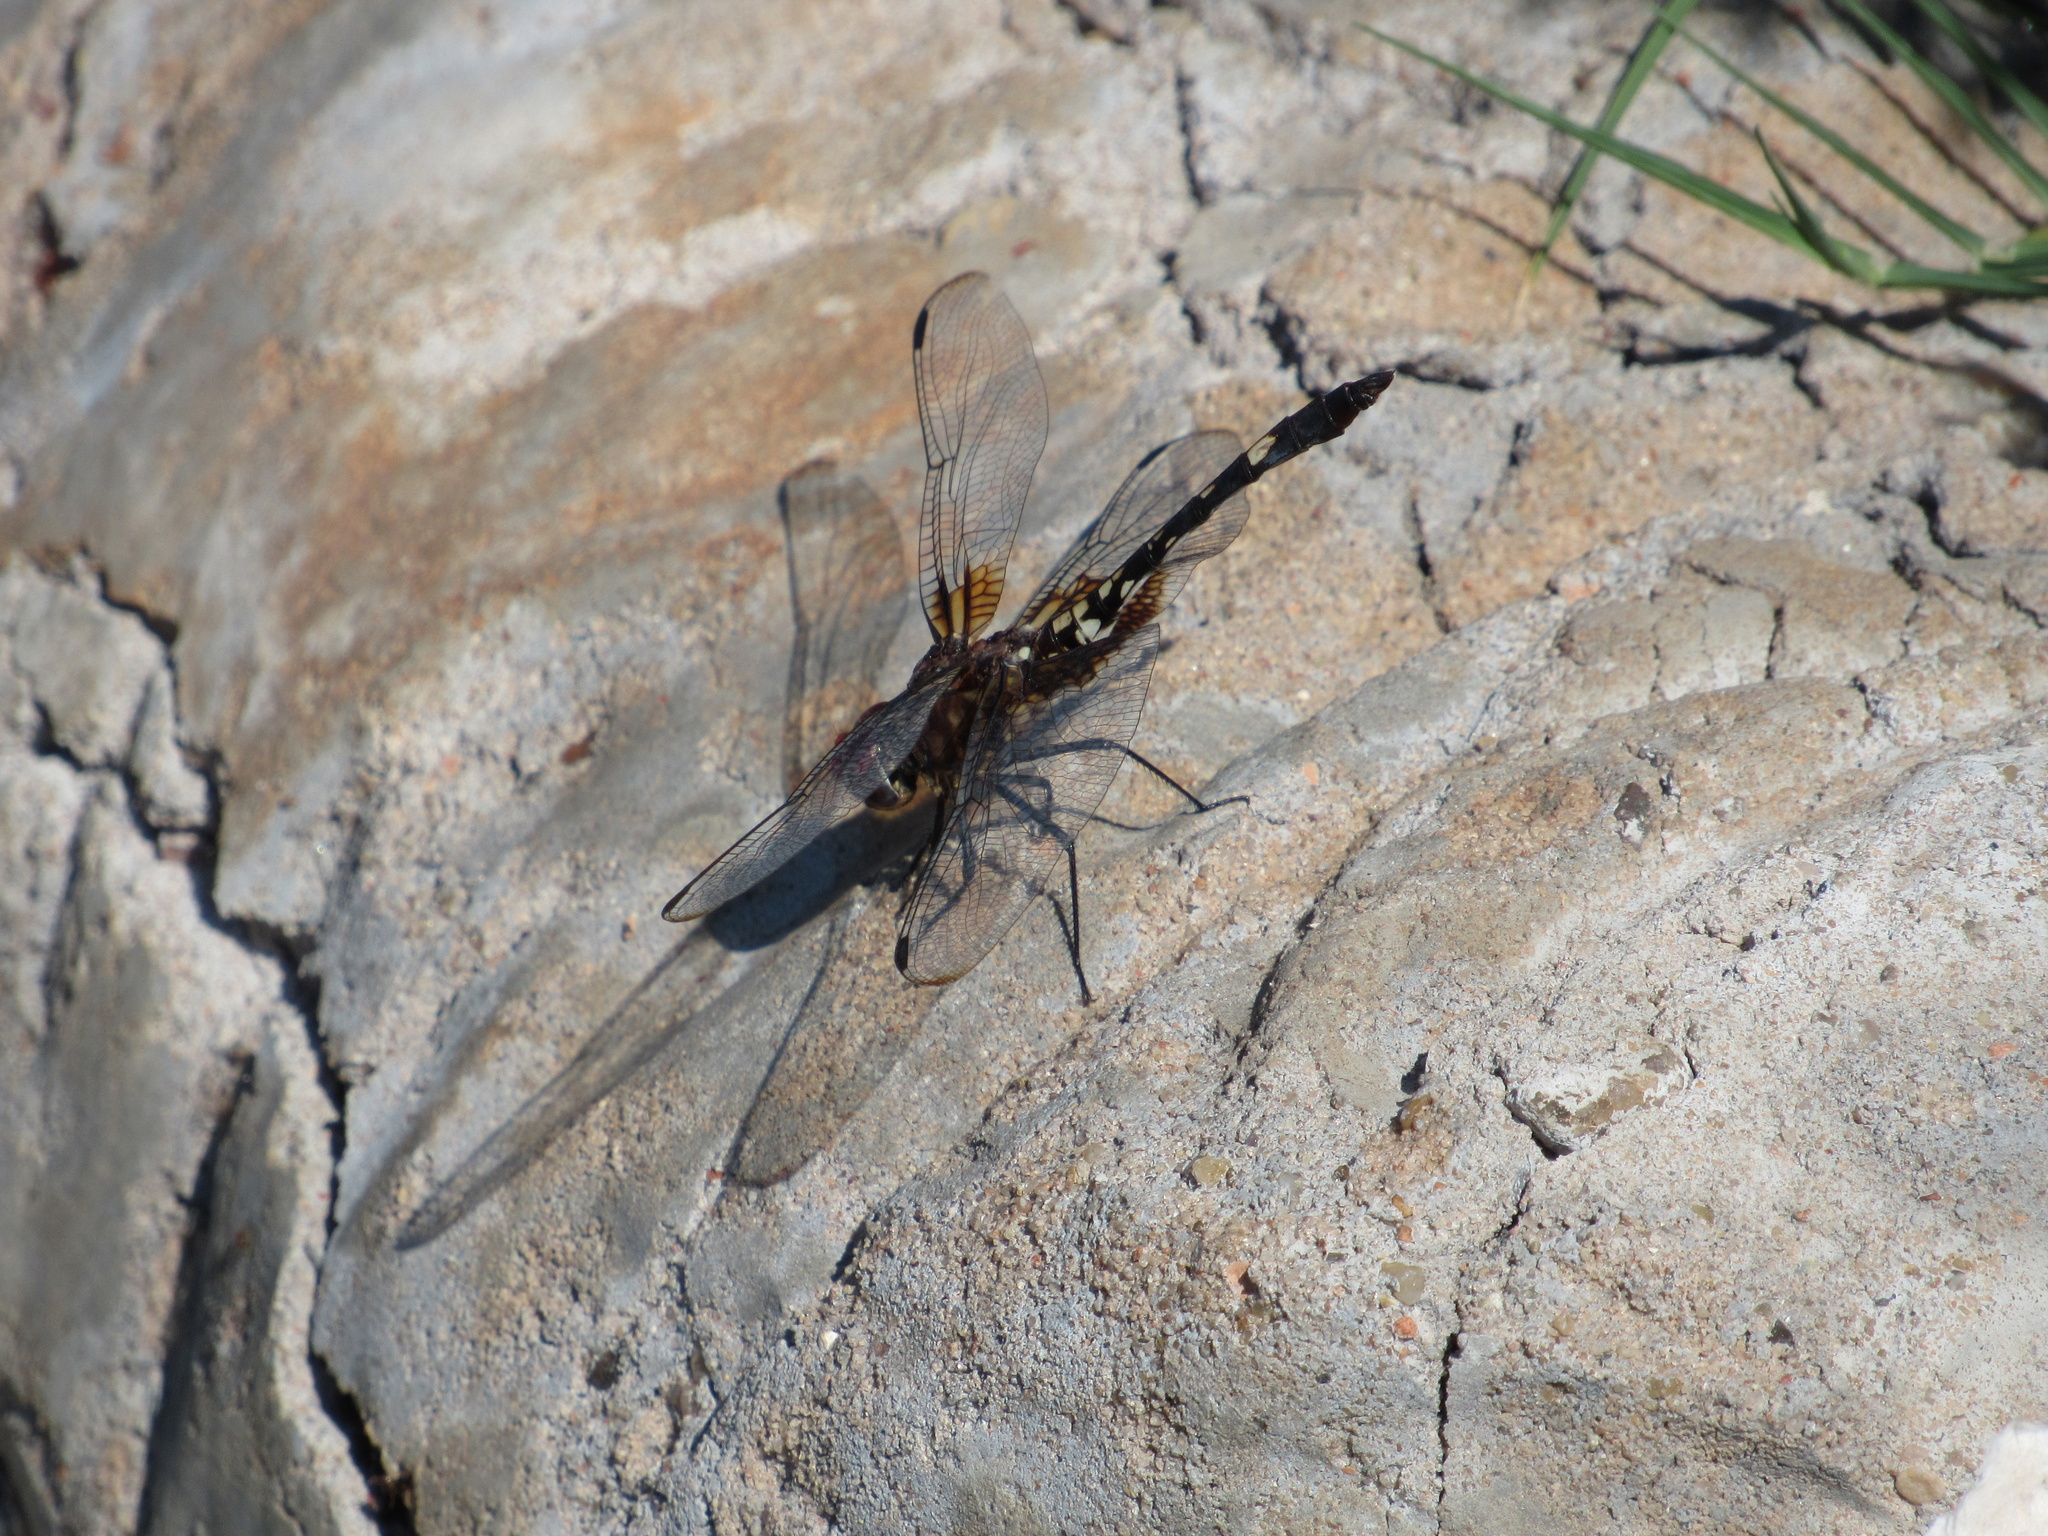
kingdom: Animalia
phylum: Arthropoda
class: Insecta
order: Odonata
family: Libellulidae
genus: Dythemis
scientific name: Dythemis fugax
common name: Checkered setwing
